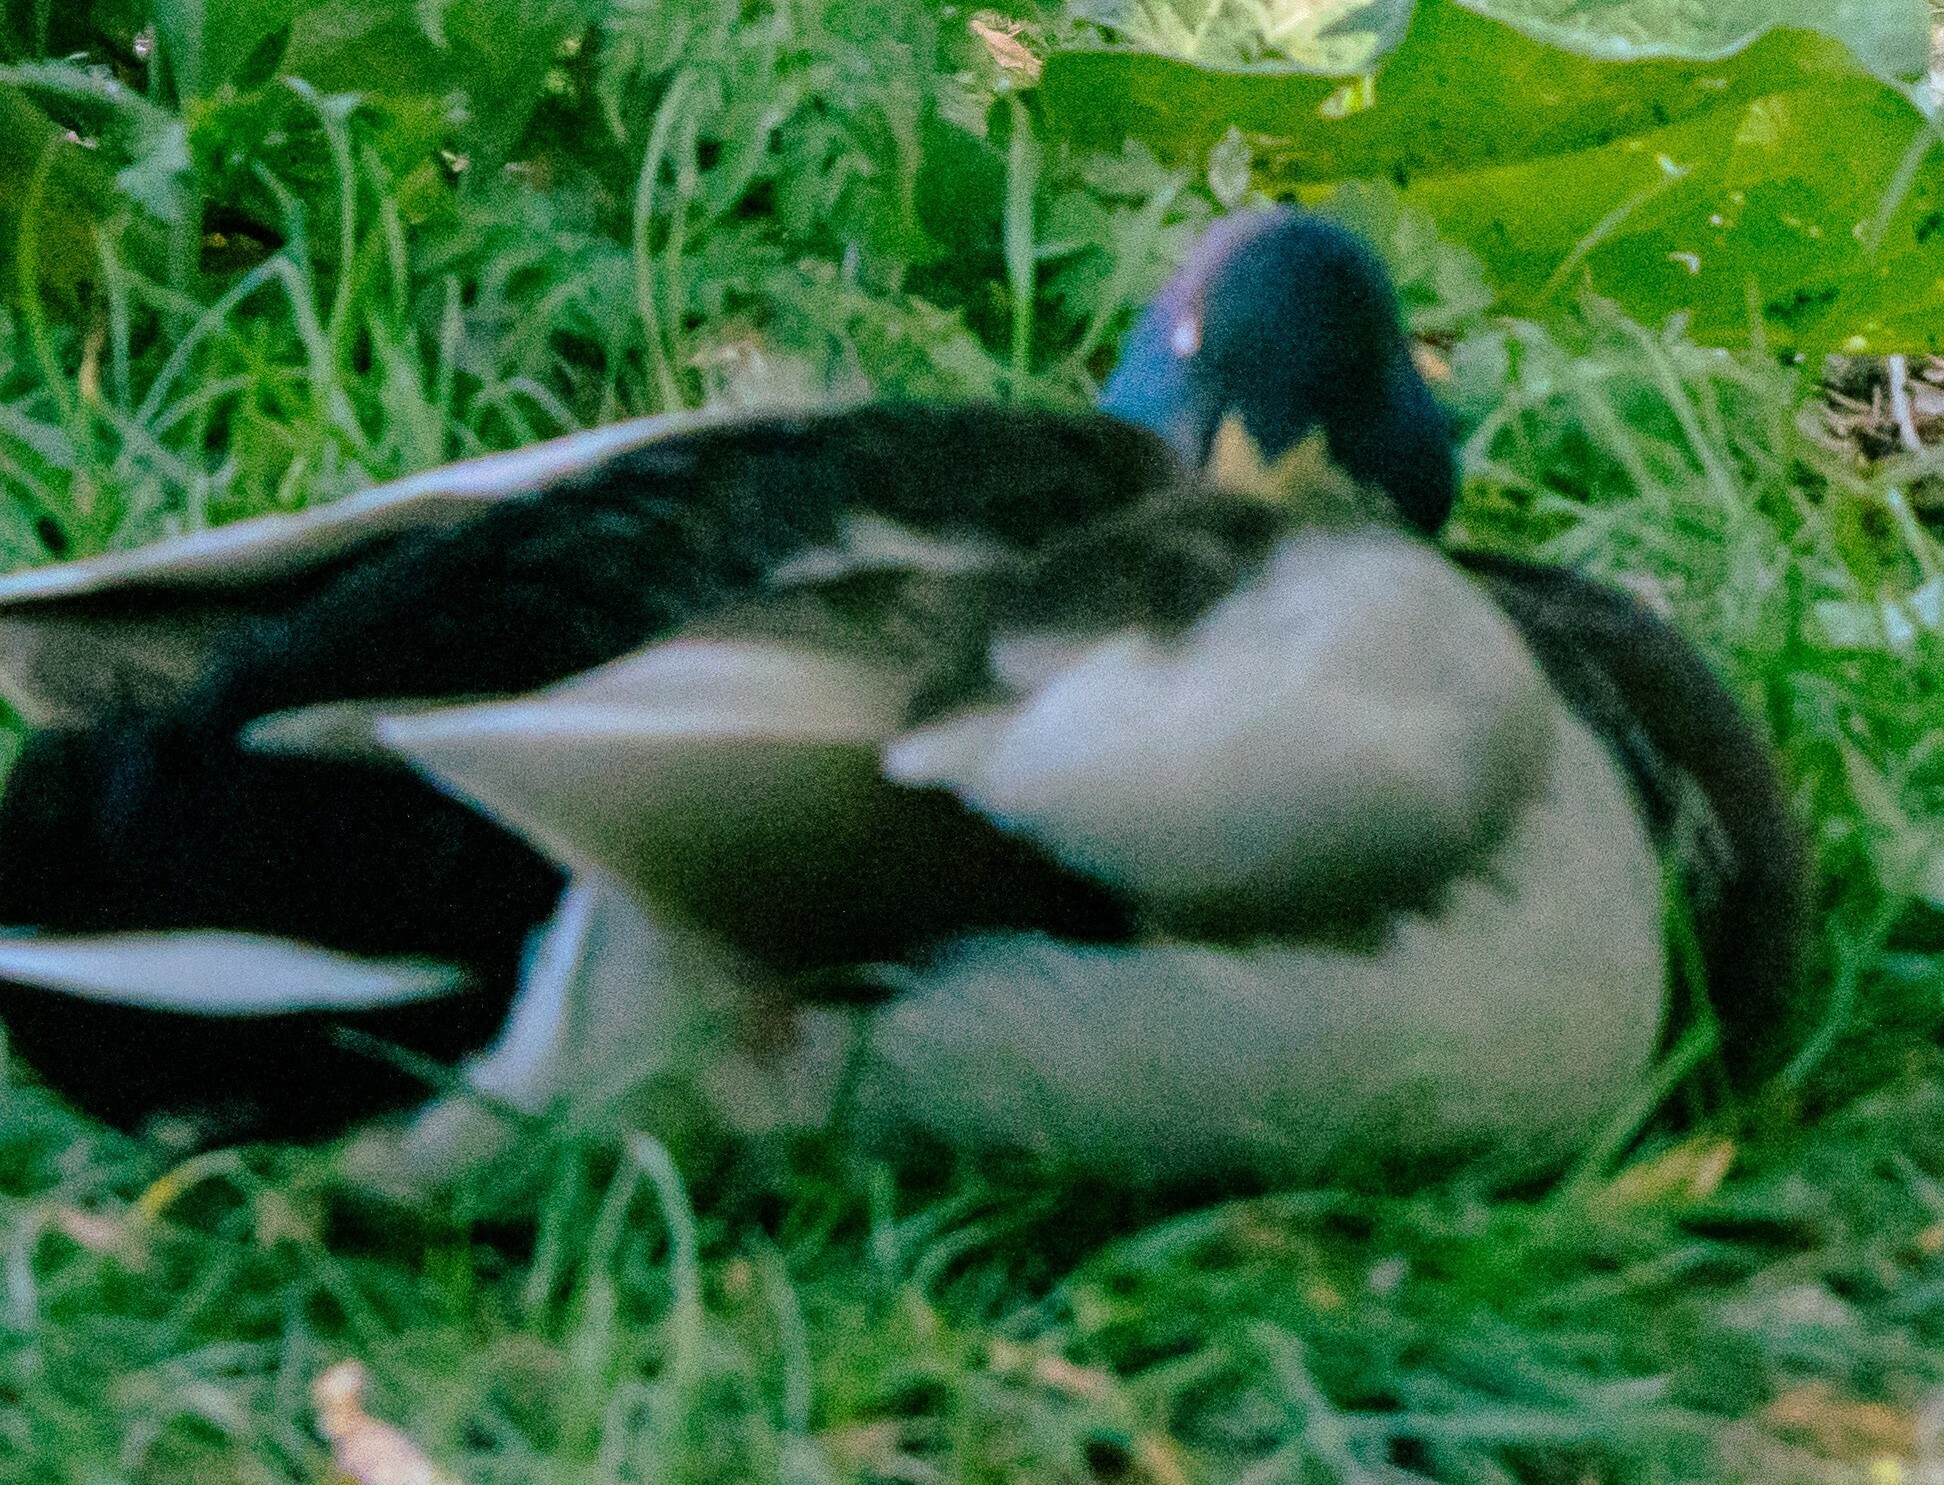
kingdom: Animalia
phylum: Chordata
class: Aves
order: Anseriformes
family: Anatidae
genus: Anas
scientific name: Anas platyrhynchos
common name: Mallard
